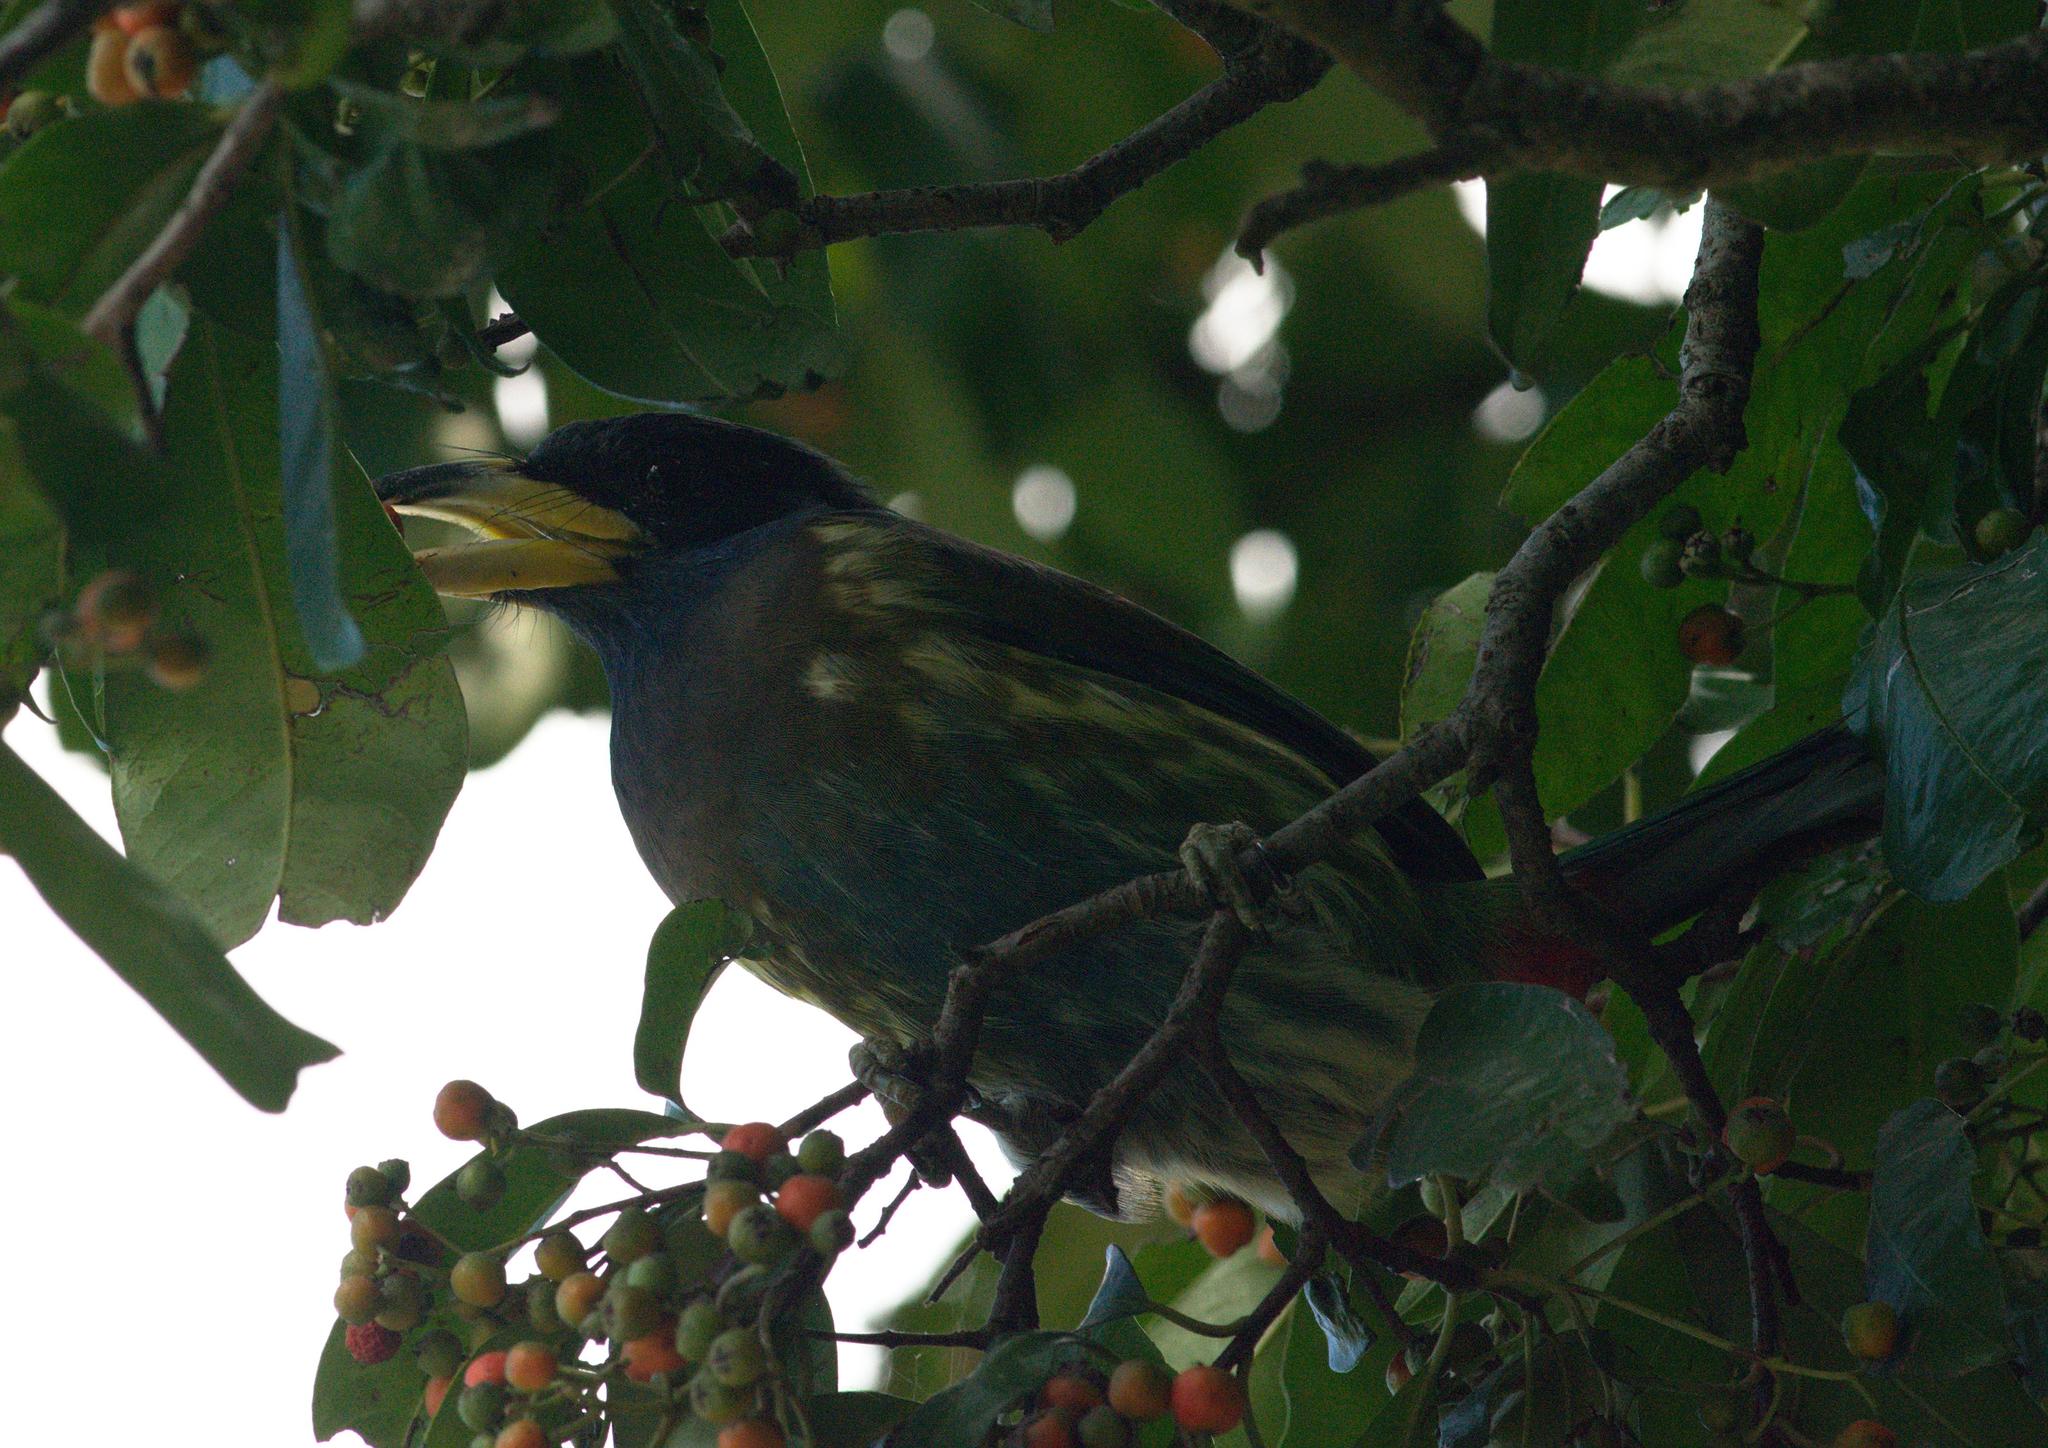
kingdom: Animalia
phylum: Chordata
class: Aves
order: Piciformes
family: Megalaimidae
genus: Psilopogon
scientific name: Psilopogon virens
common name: Great barbet
